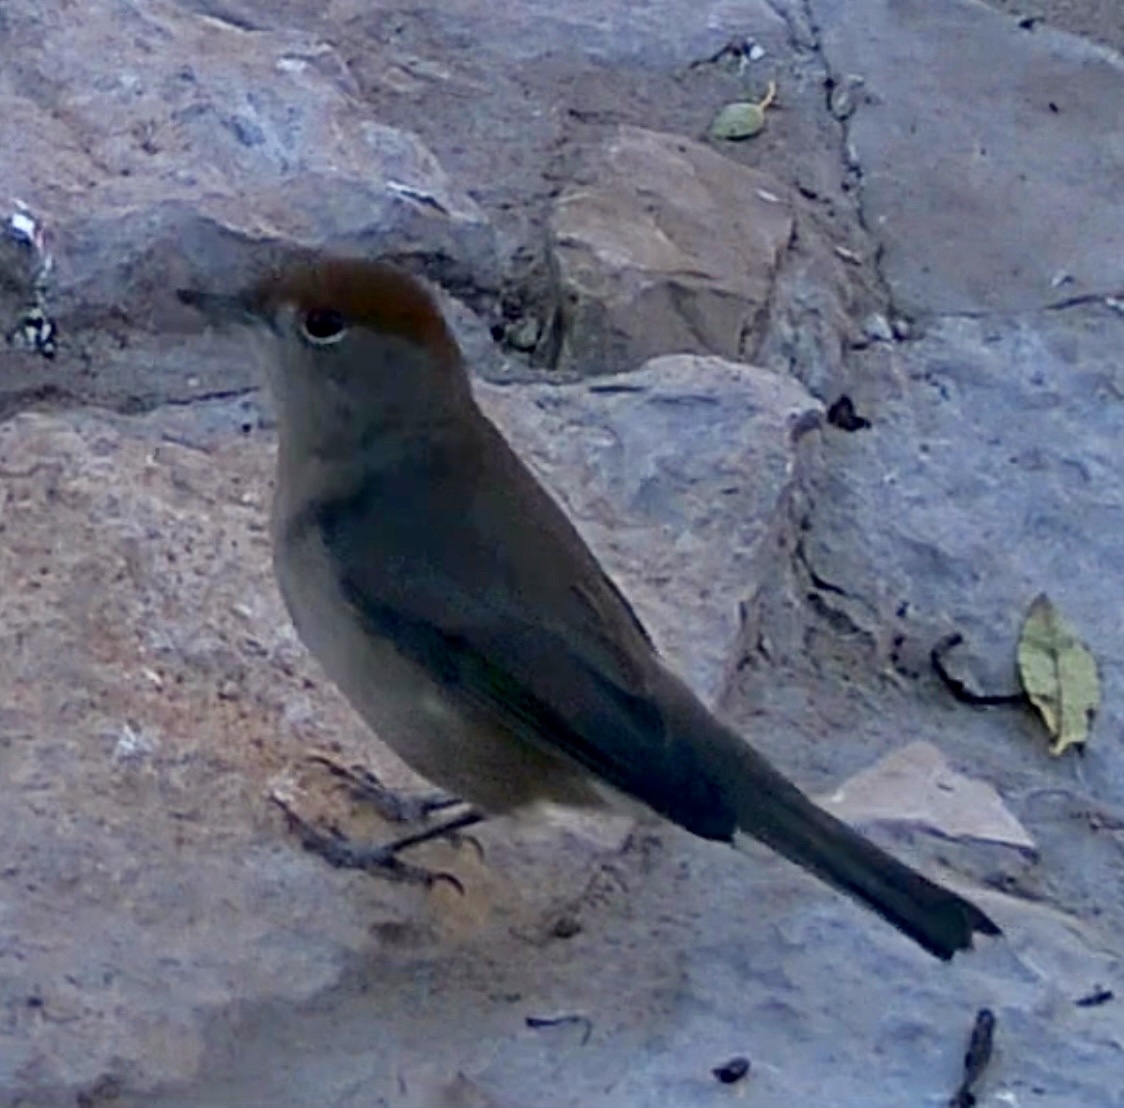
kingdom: Animalia
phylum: Chordata
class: Aves
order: Passeriformes
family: Sylviidae
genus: Sylvia
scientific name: Sylvia atricapilla
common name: Eurasian blackcap
